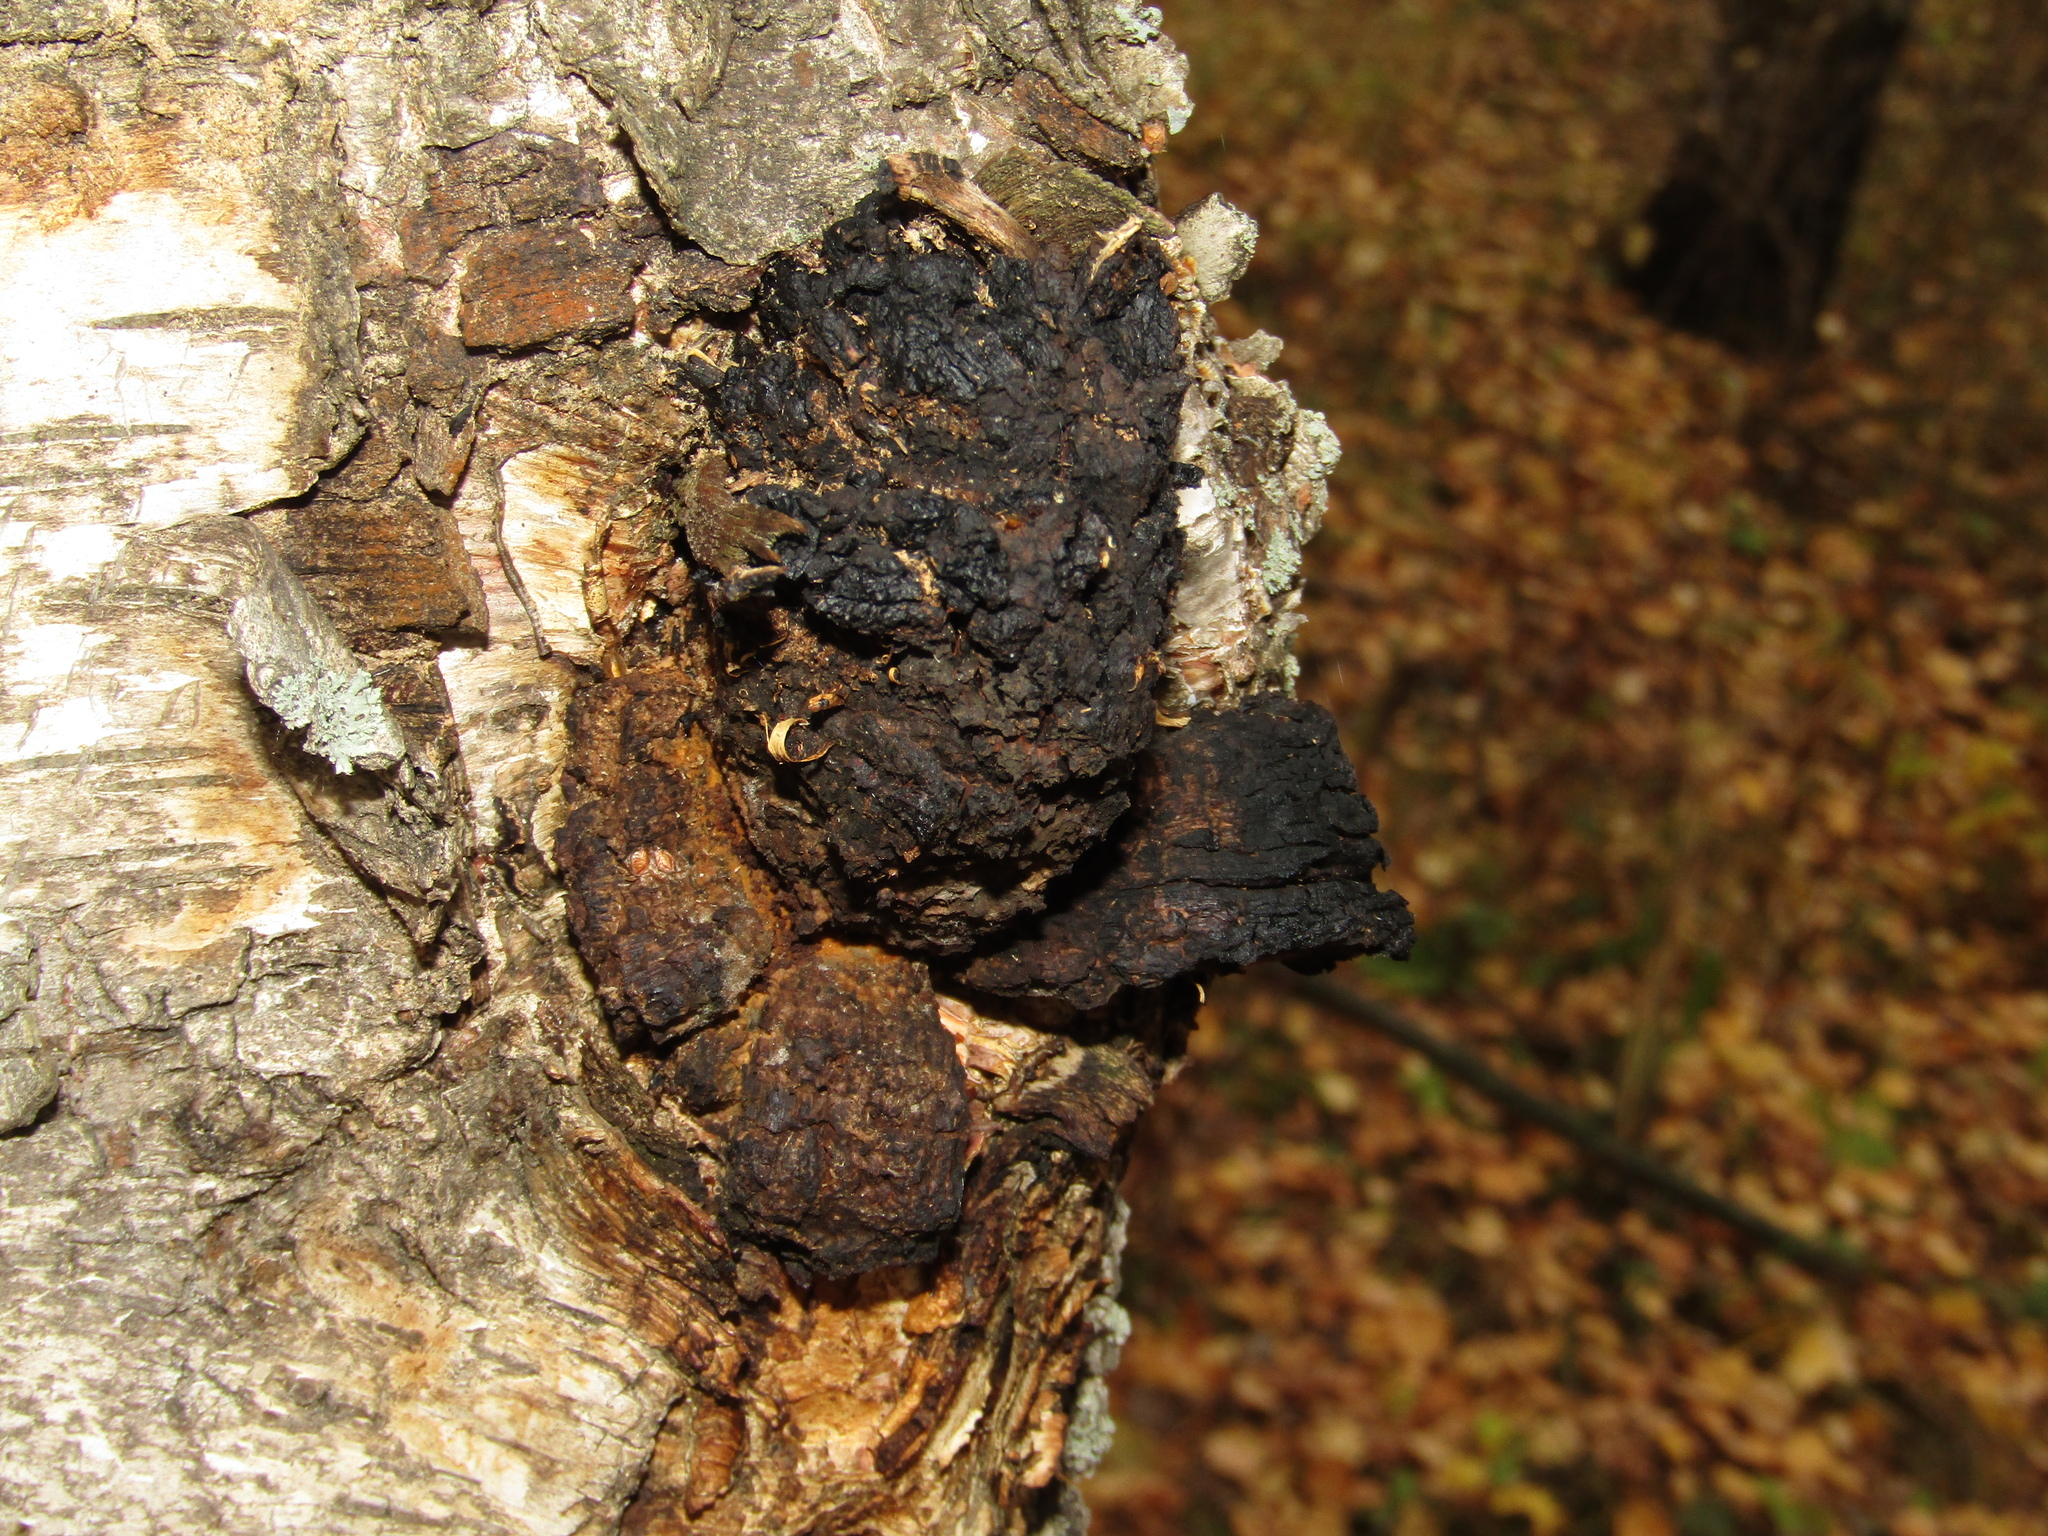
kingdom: Fungi
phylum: Basidiomycota
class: Agaricomycetes
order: Hymenochaetales
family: Hymenochaetaceae
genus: Inonotus
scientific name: Inonotus obliquus
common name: Chaga
